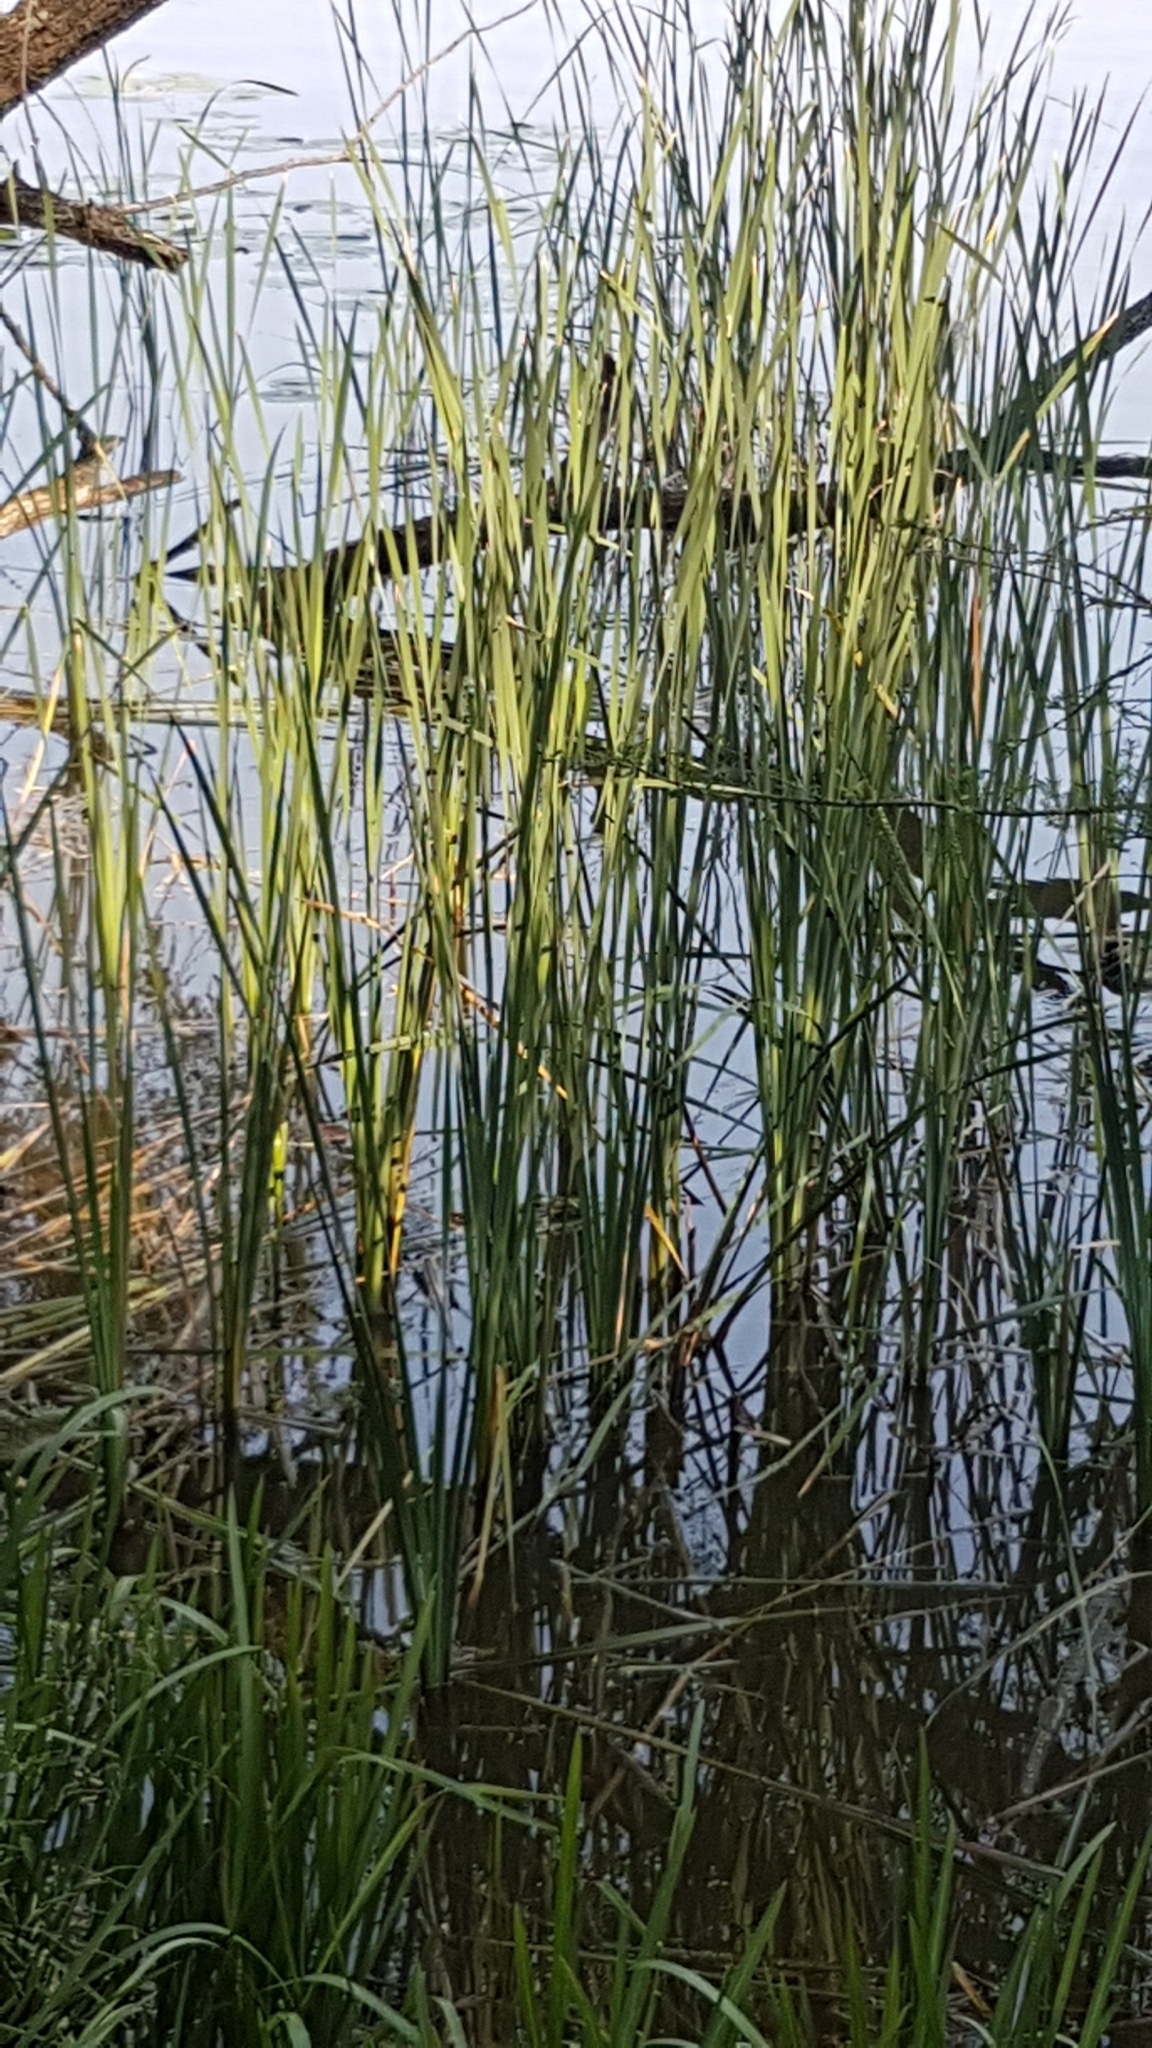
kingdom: Plantae
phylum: Tracheophyta
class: Liliopsida
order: Poales
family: Typhaceae
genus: Typha
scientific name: Typha angustifolia
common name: Lesser bulrush
